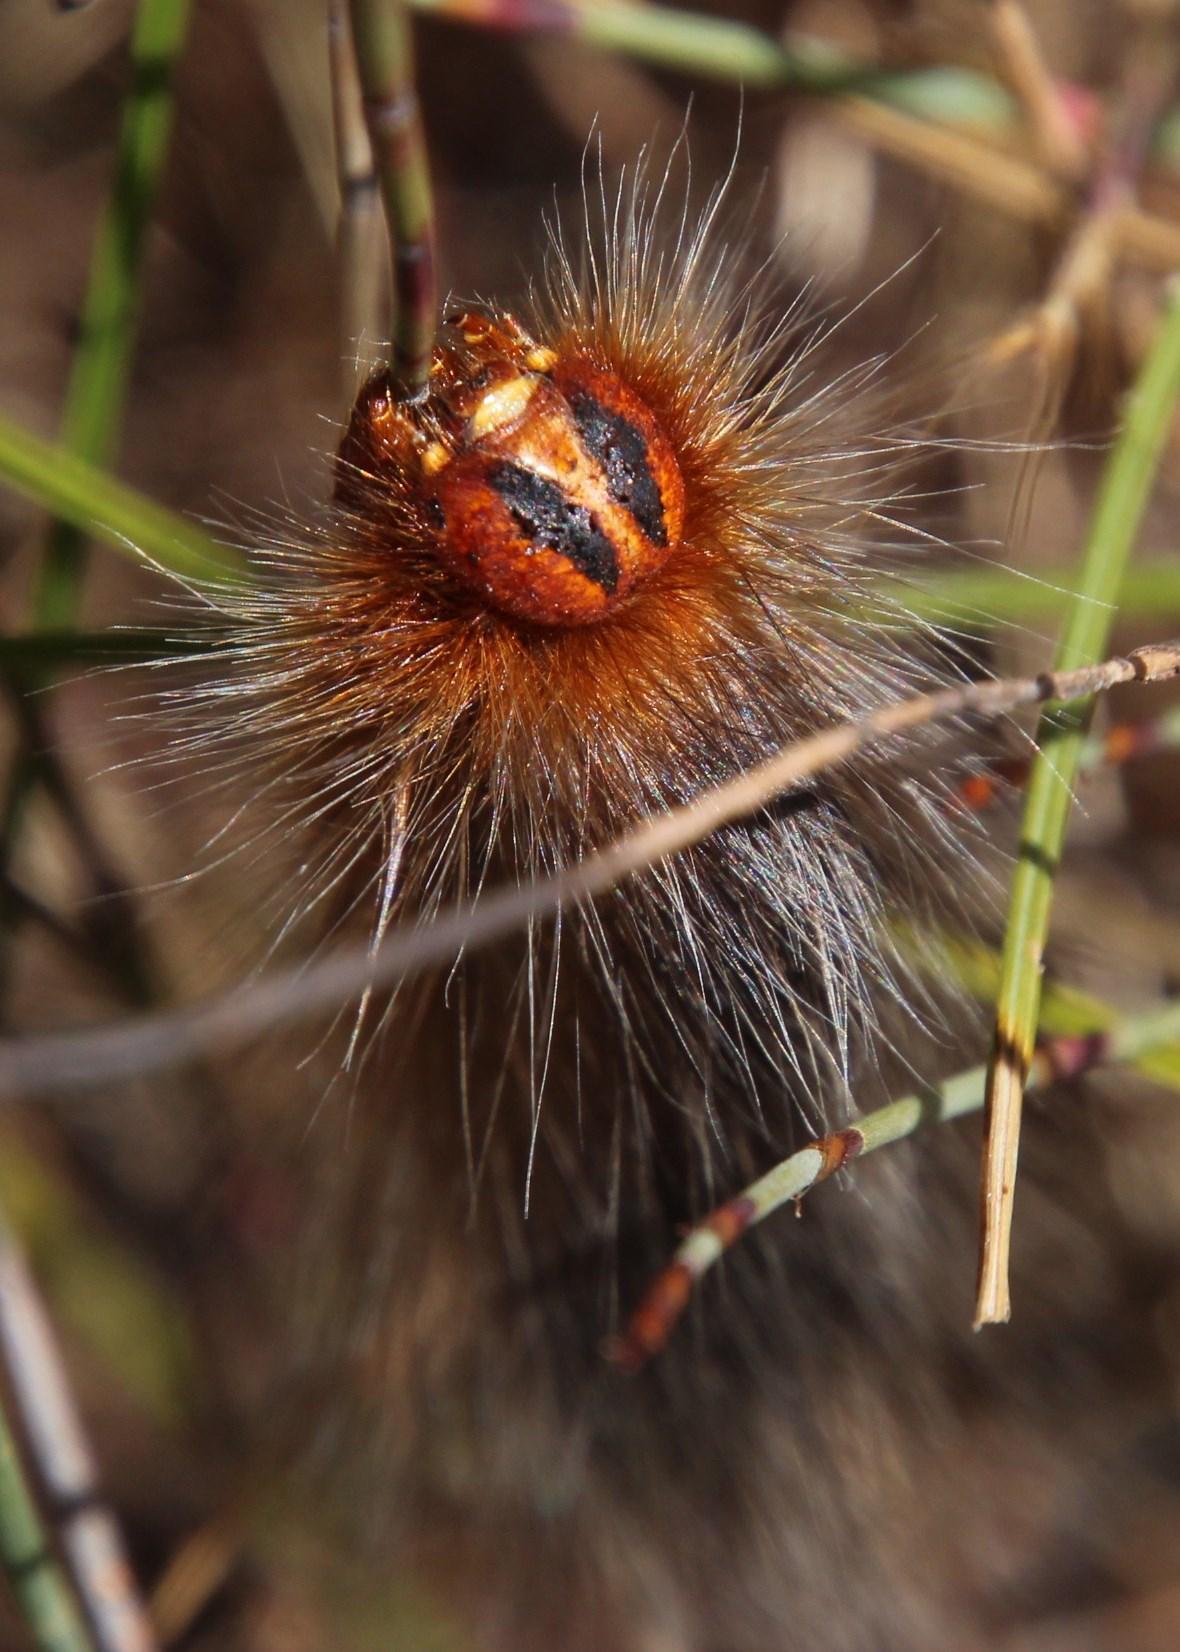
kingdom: Animalia
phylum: Arthropoda
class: Insecta
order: Lepidoptera
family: Lasiocampidae
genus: Mesocelis
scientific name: Mesocelis monticola
